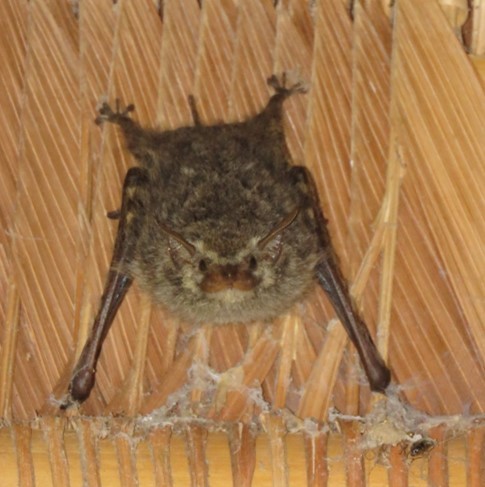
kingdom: Animalia
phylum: Chordata
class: Mammalia
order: Chiroptera
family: Emballonuridae
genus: Rhynchonycteris
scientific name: Rhynchonycteris naso
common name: Proboscis bat
